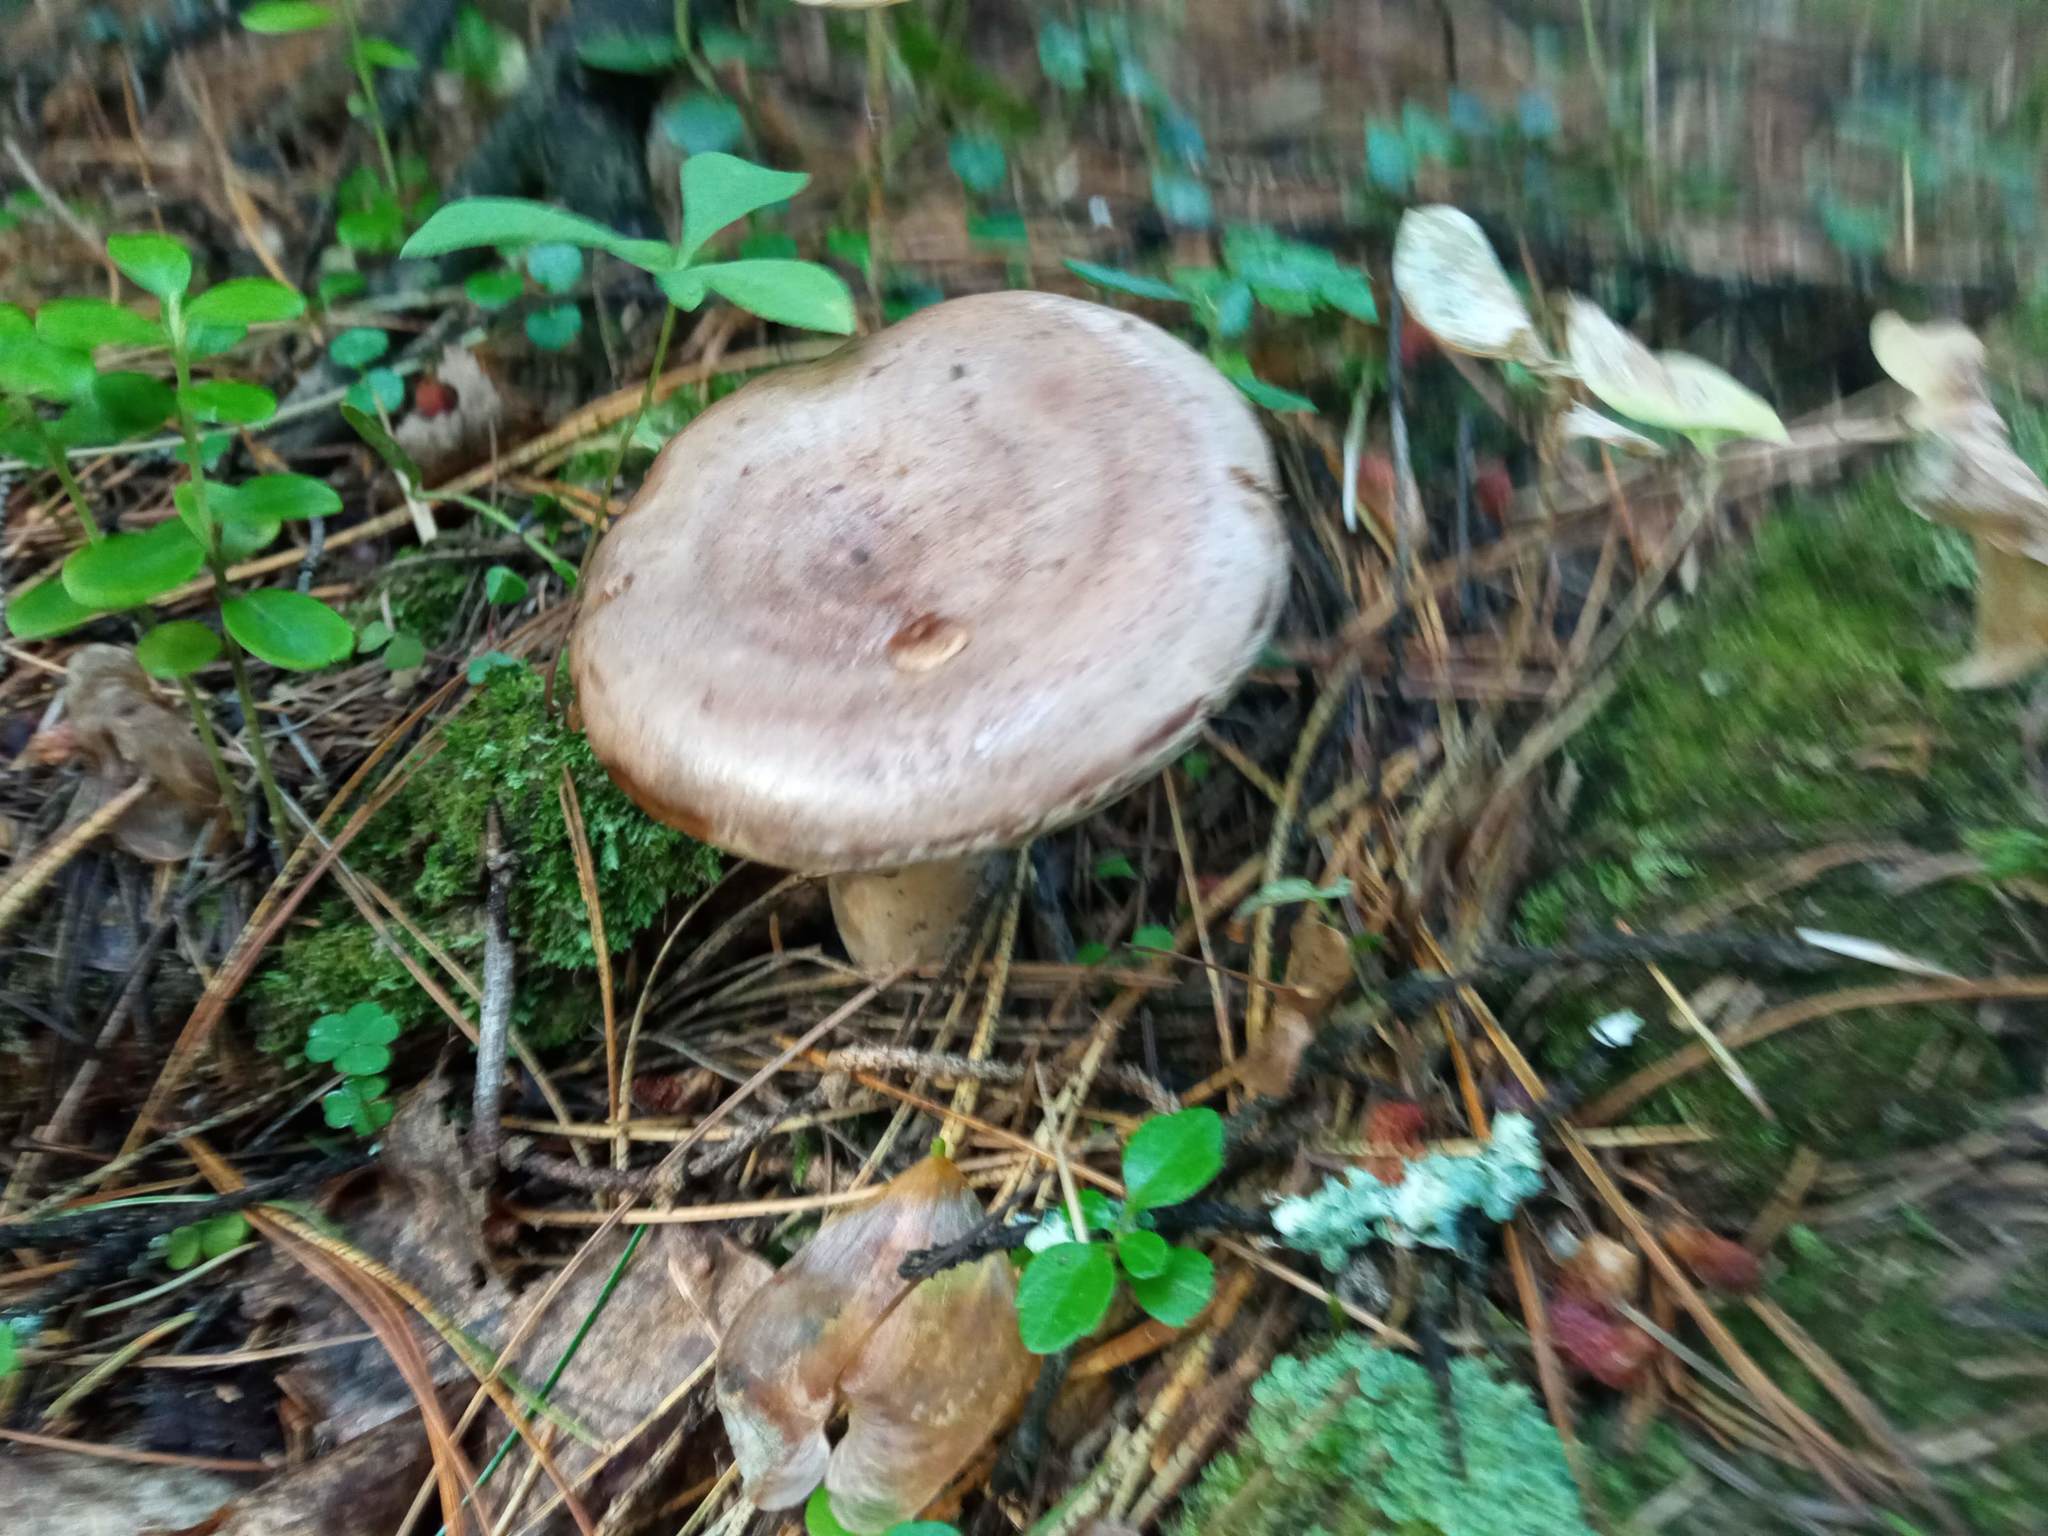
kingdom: Fungi
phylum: Basidiomycota
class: Agaricomycetes
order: Russulales
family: Russulaceae
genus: Lactarius
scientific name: Lactarius trivialis
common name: Tacked milkcap
